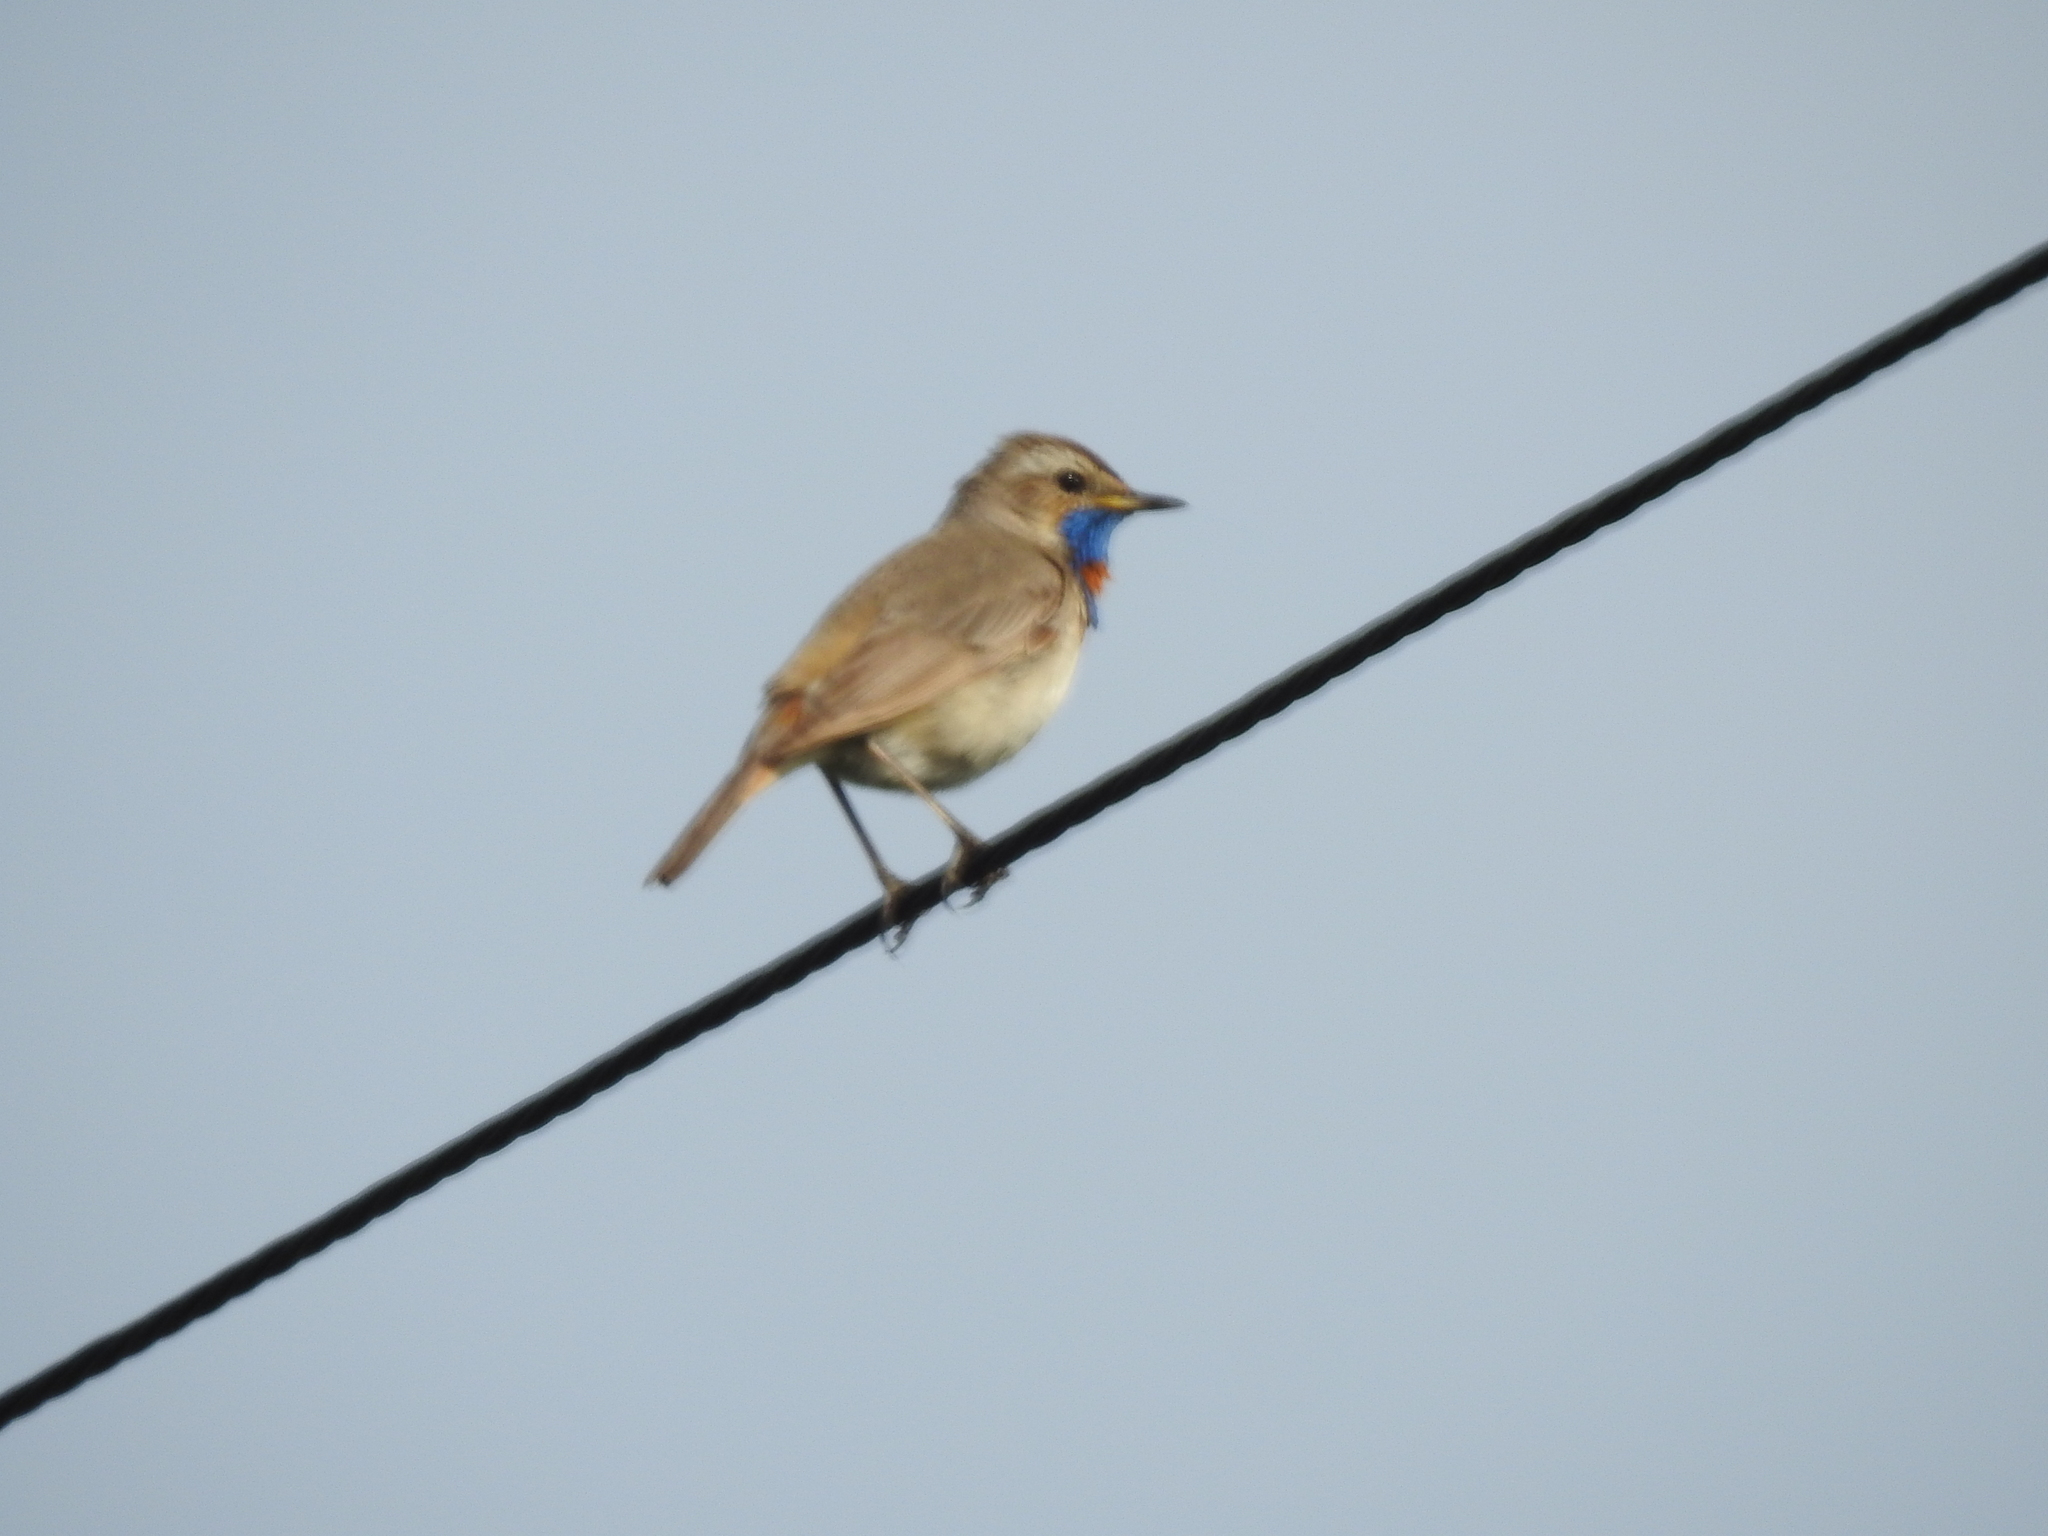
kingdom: Animalia
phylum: Chordata
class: Aves
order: Passeriformes
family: Muscicapidae
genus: Luscinia
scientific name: Luscinia svecica
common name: Bluethroat
